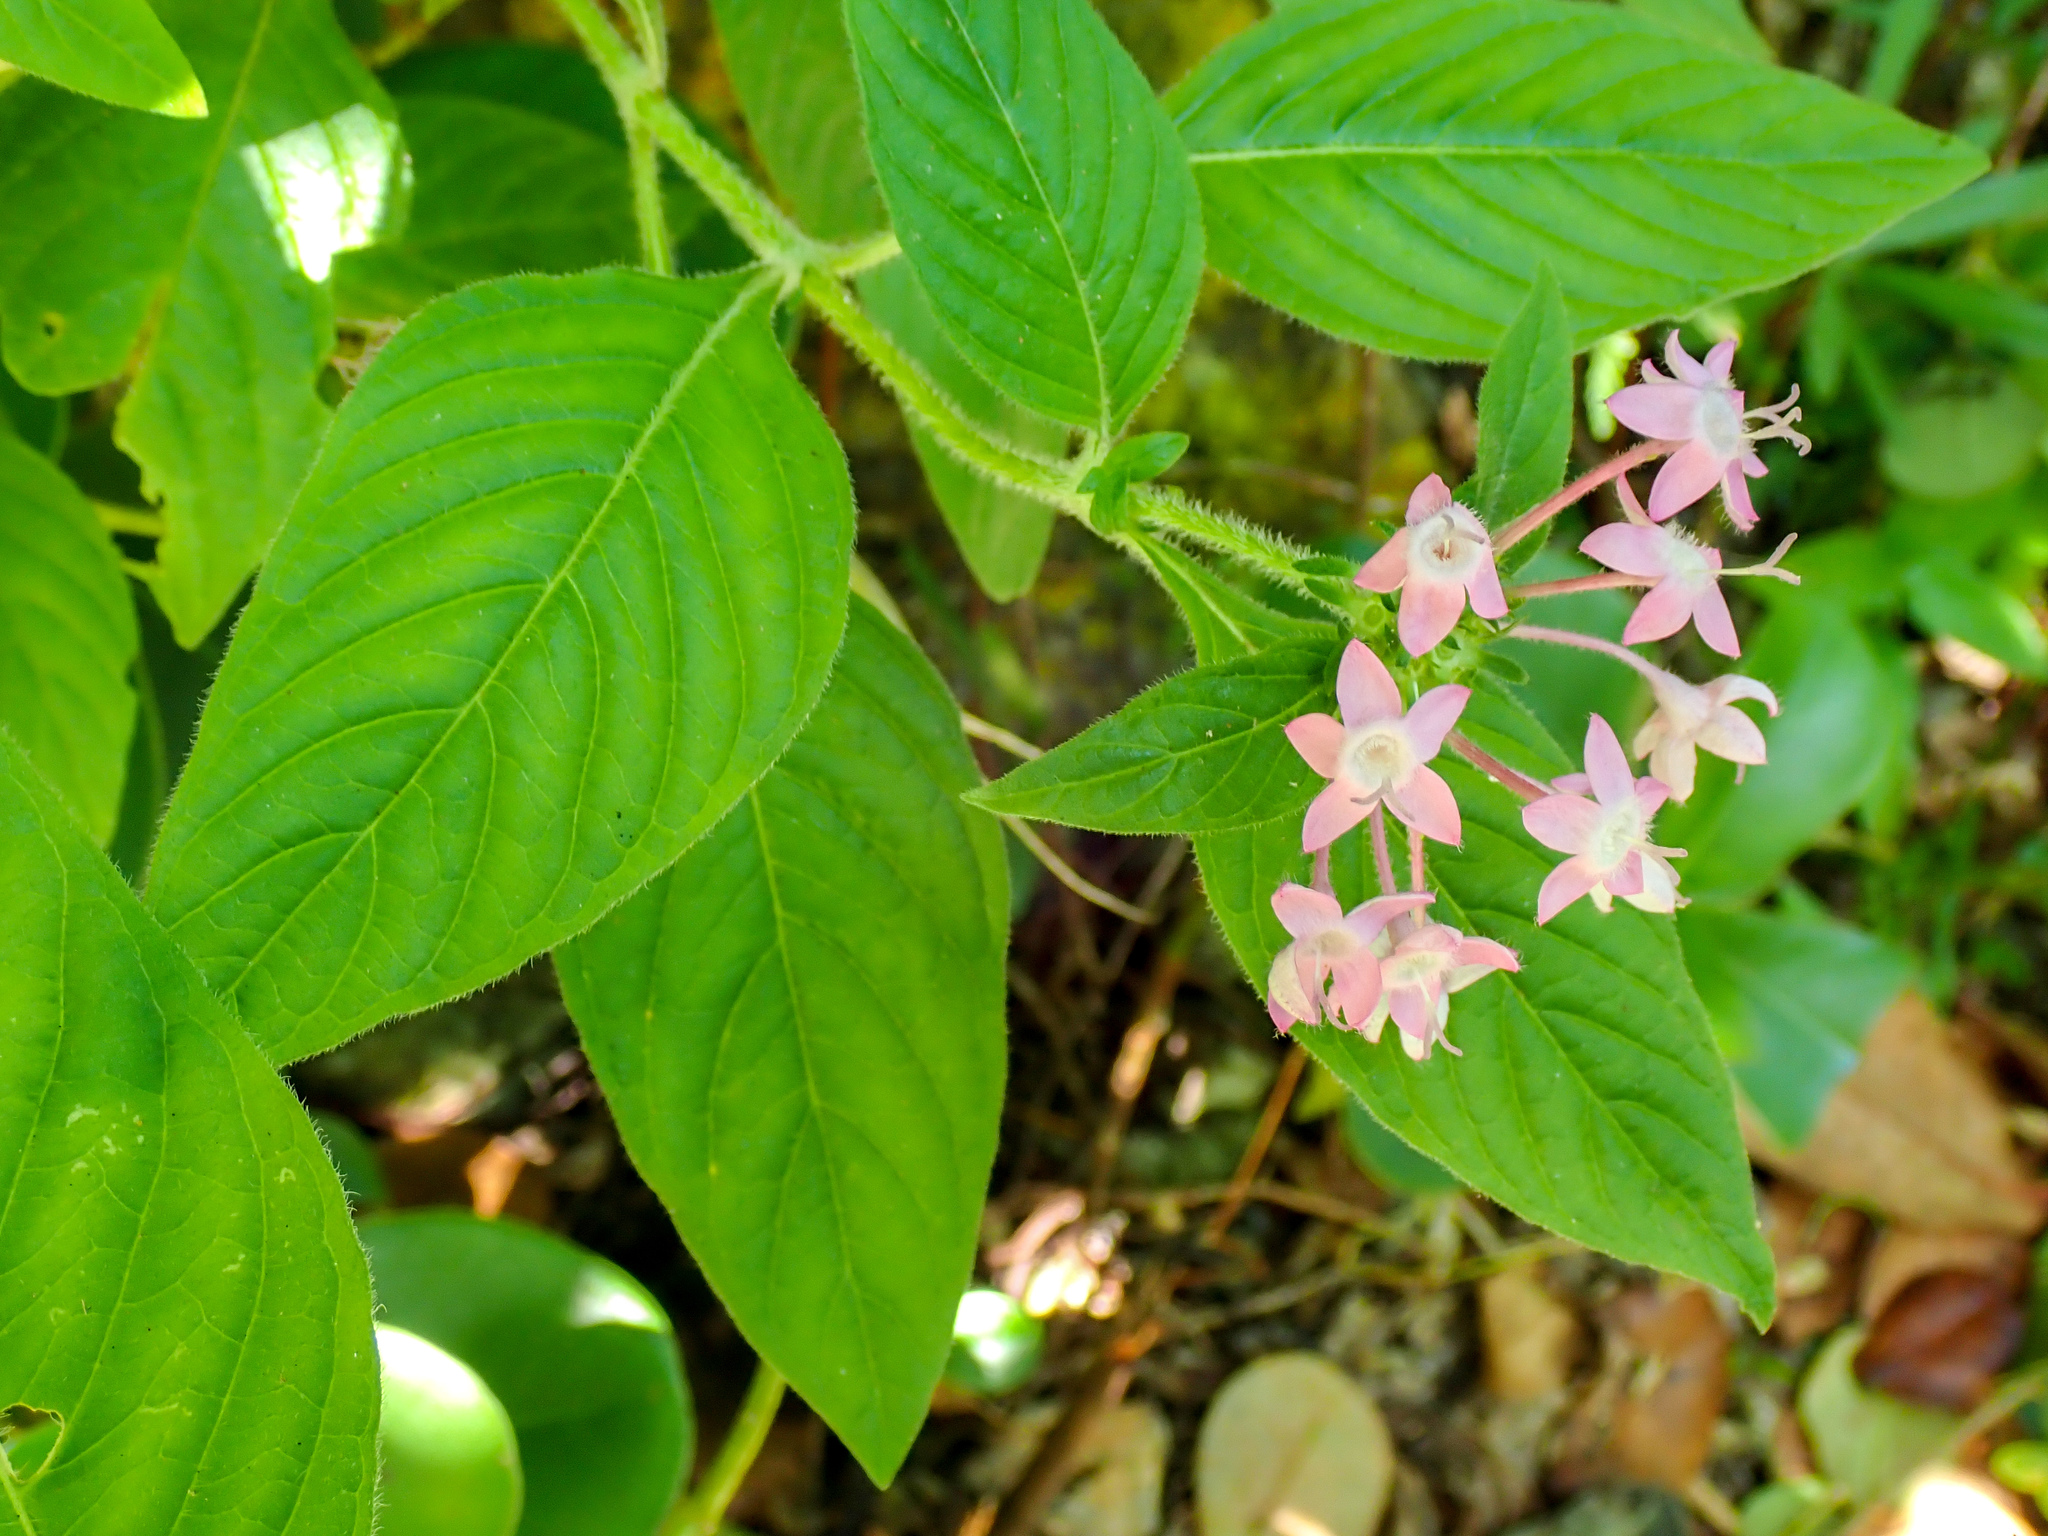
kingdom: Plantae
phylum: Tracheophyta
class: Magnoliopsida
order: Gentianales
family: Rubiaceae
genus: Pentas
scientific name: Pentas lanceolata
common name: Egyptian starcluster
